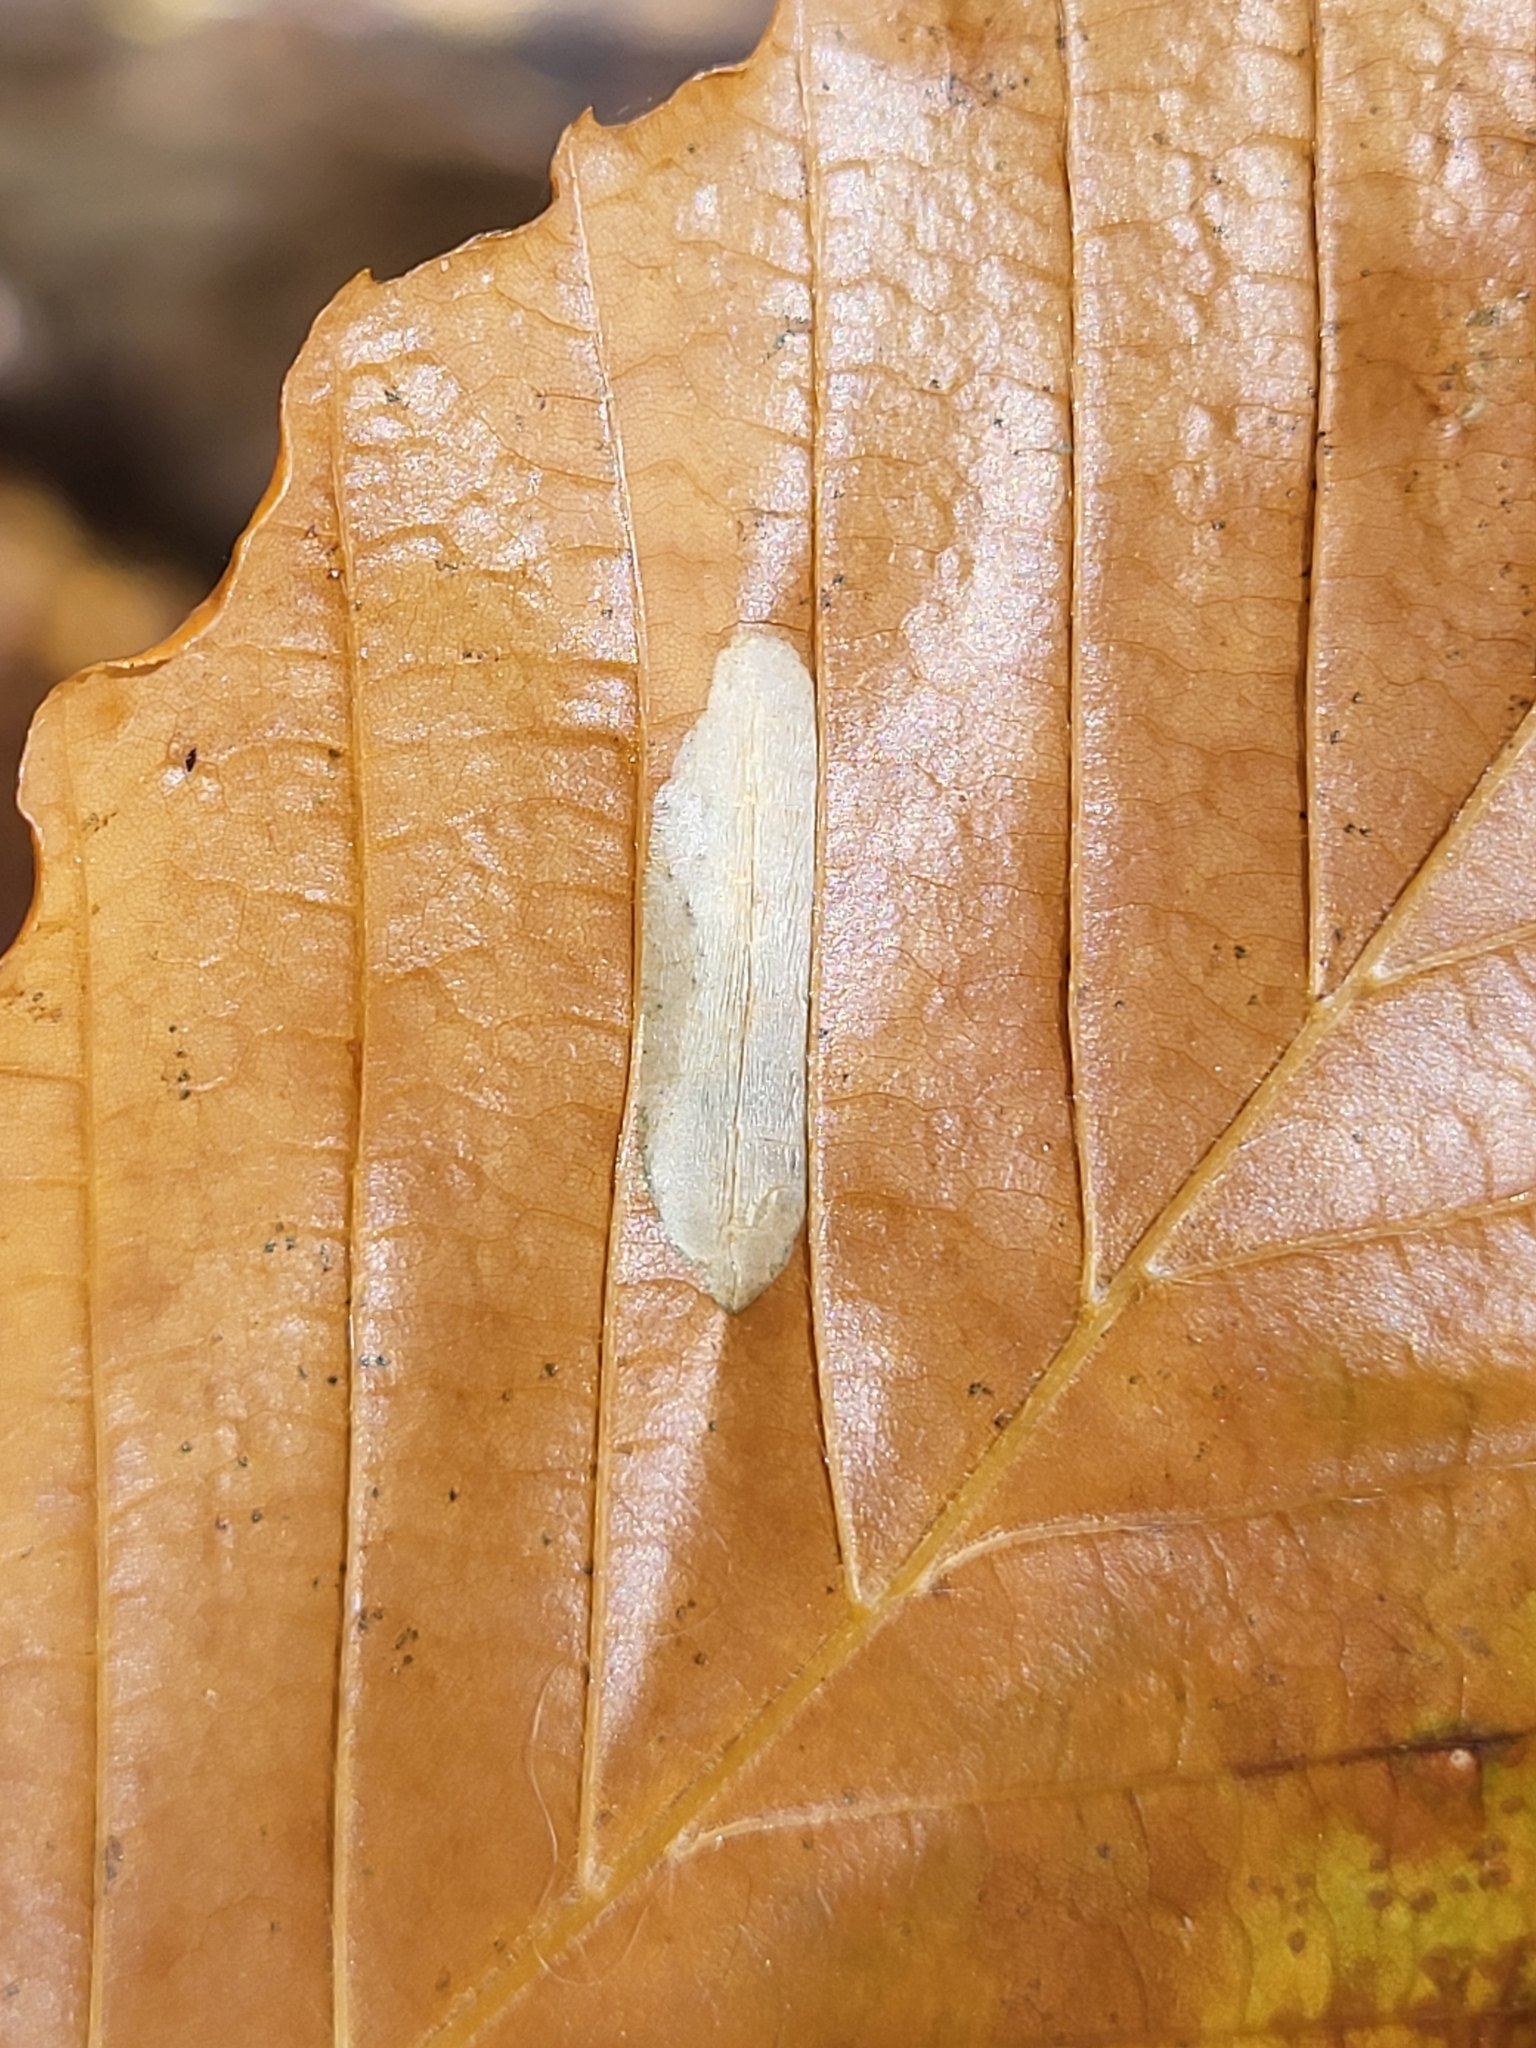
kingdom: Animalia
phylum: Arthropoda
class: Insecta
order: Lepidoptera
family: Gracillariidae
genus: Phyllonorycter
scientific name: Phyllonorycter maestingella
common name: Beech midget
